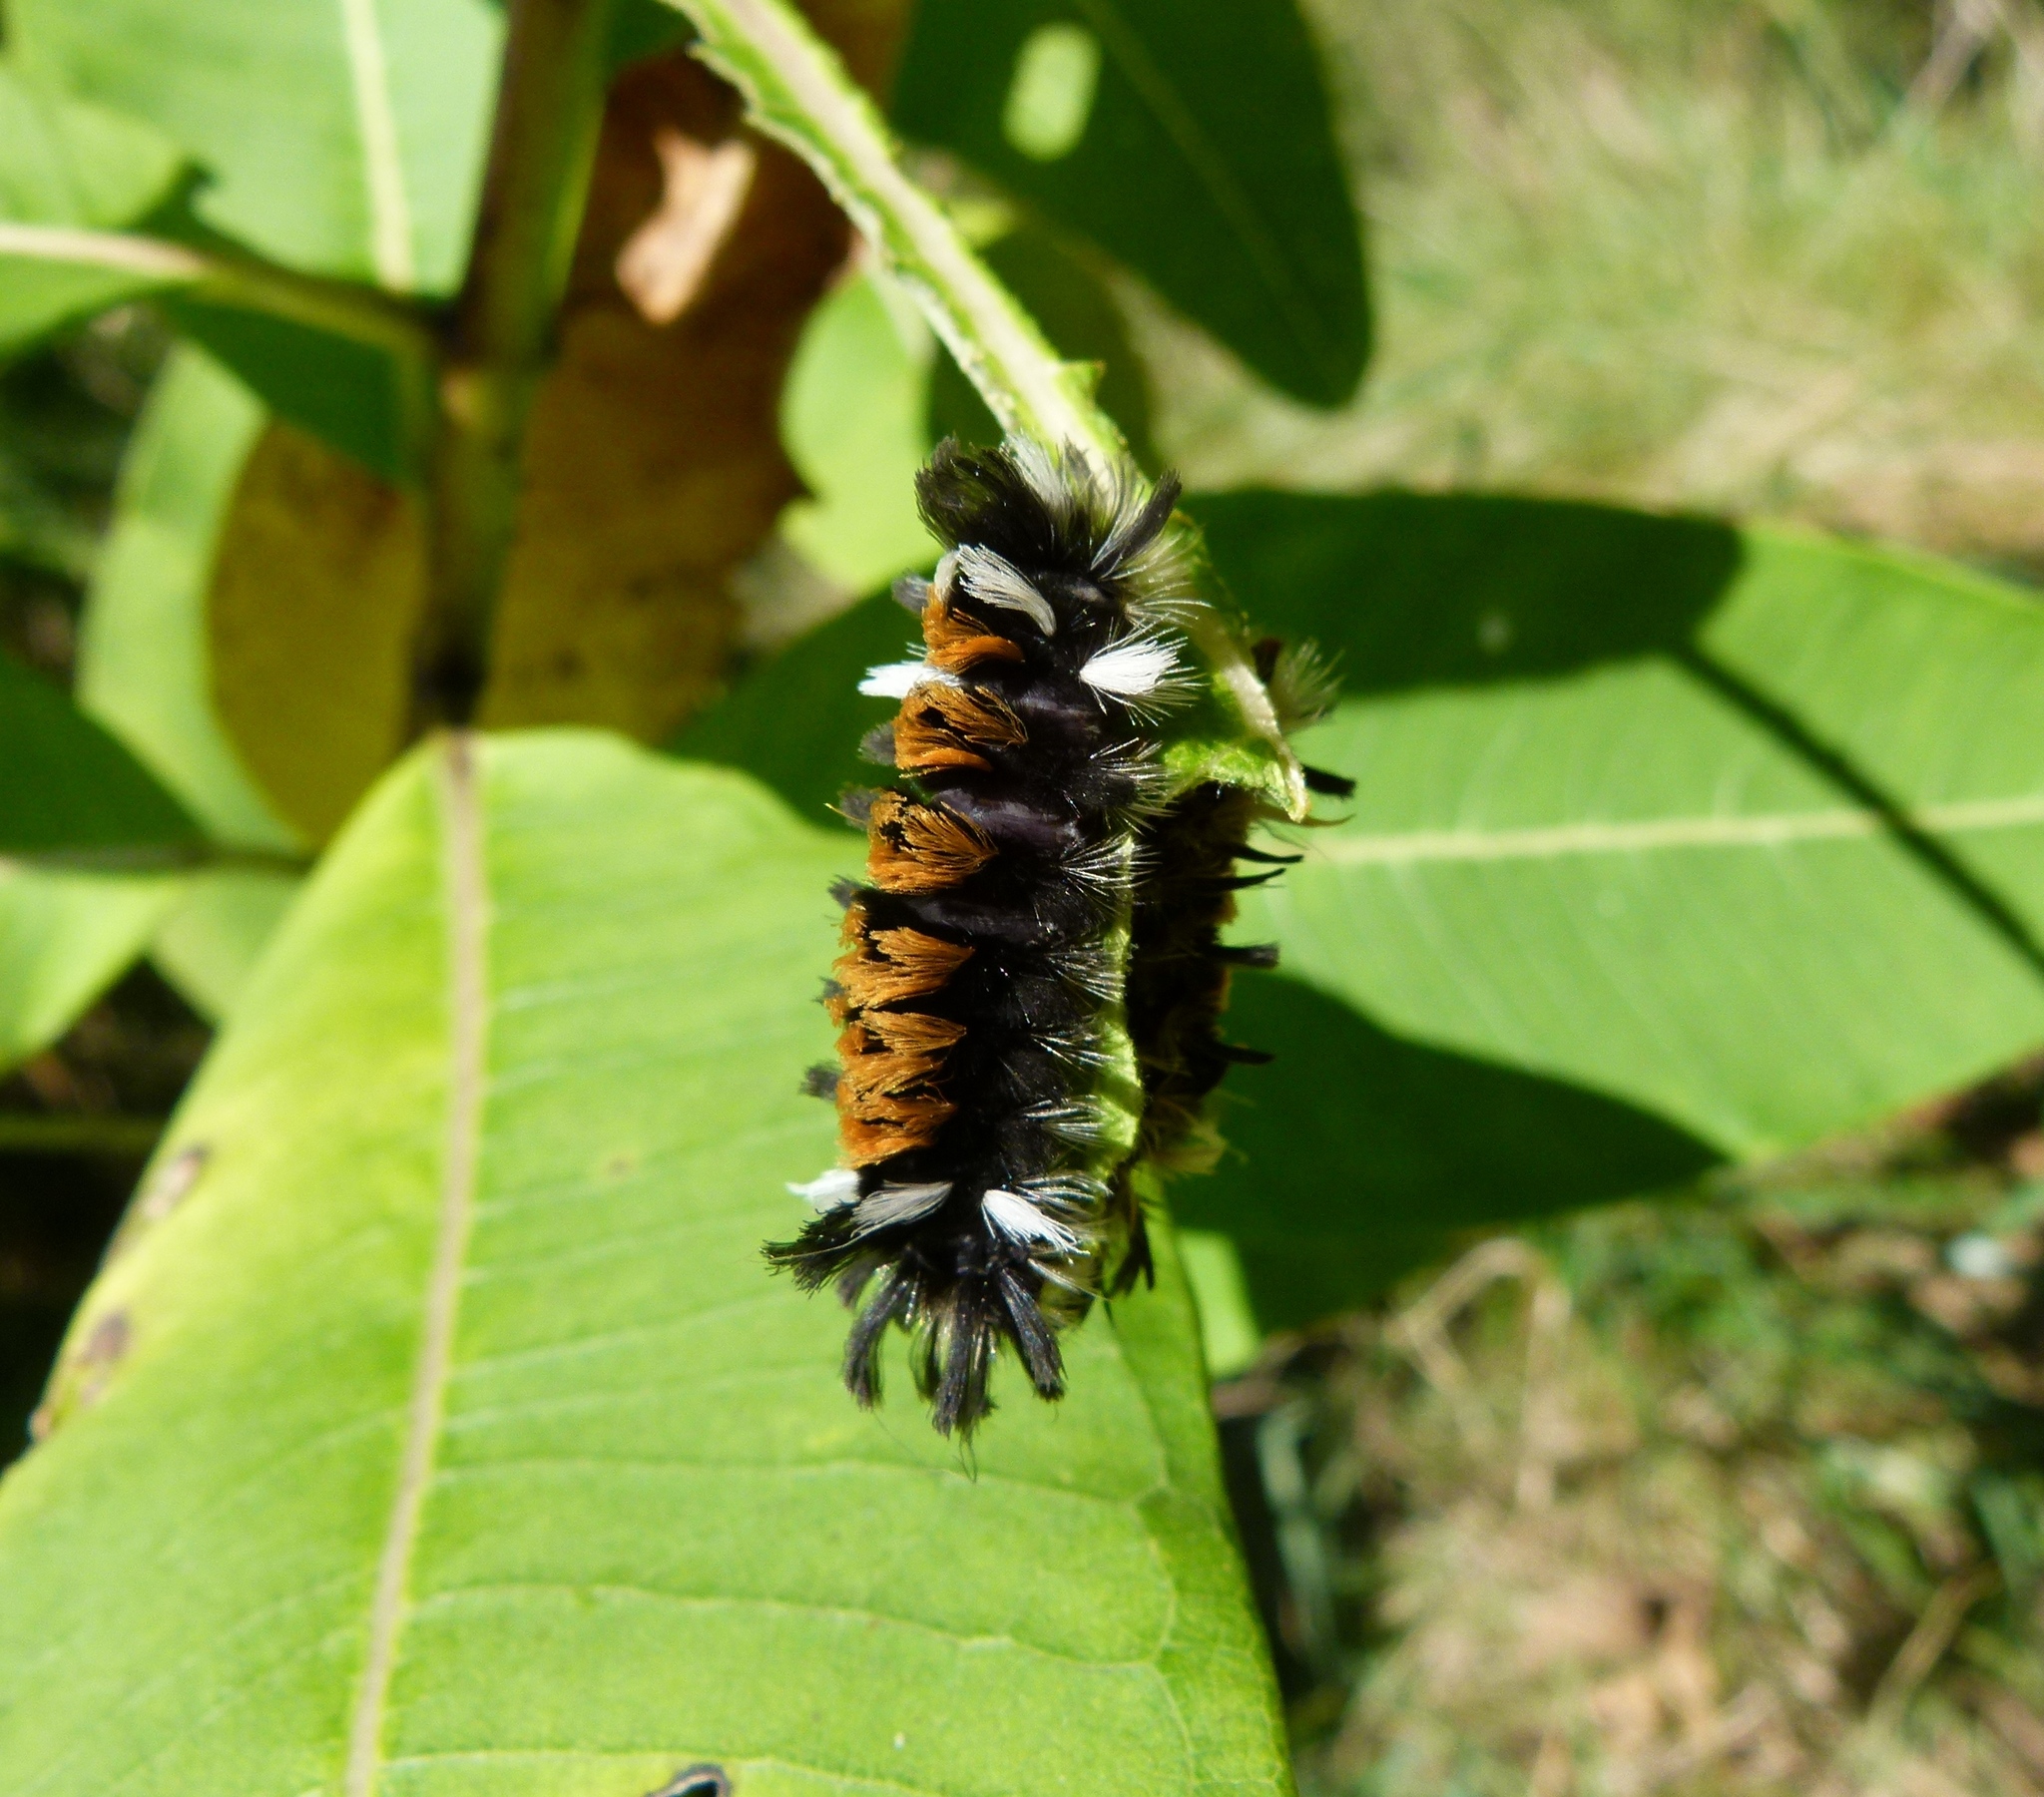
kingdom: Animalia
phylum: Arthropoda
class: Insecta
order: Lepidoptera
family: Erebidae
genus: Euchaetes
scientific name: Euchaetes egle
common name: Milkweed tussock moth
